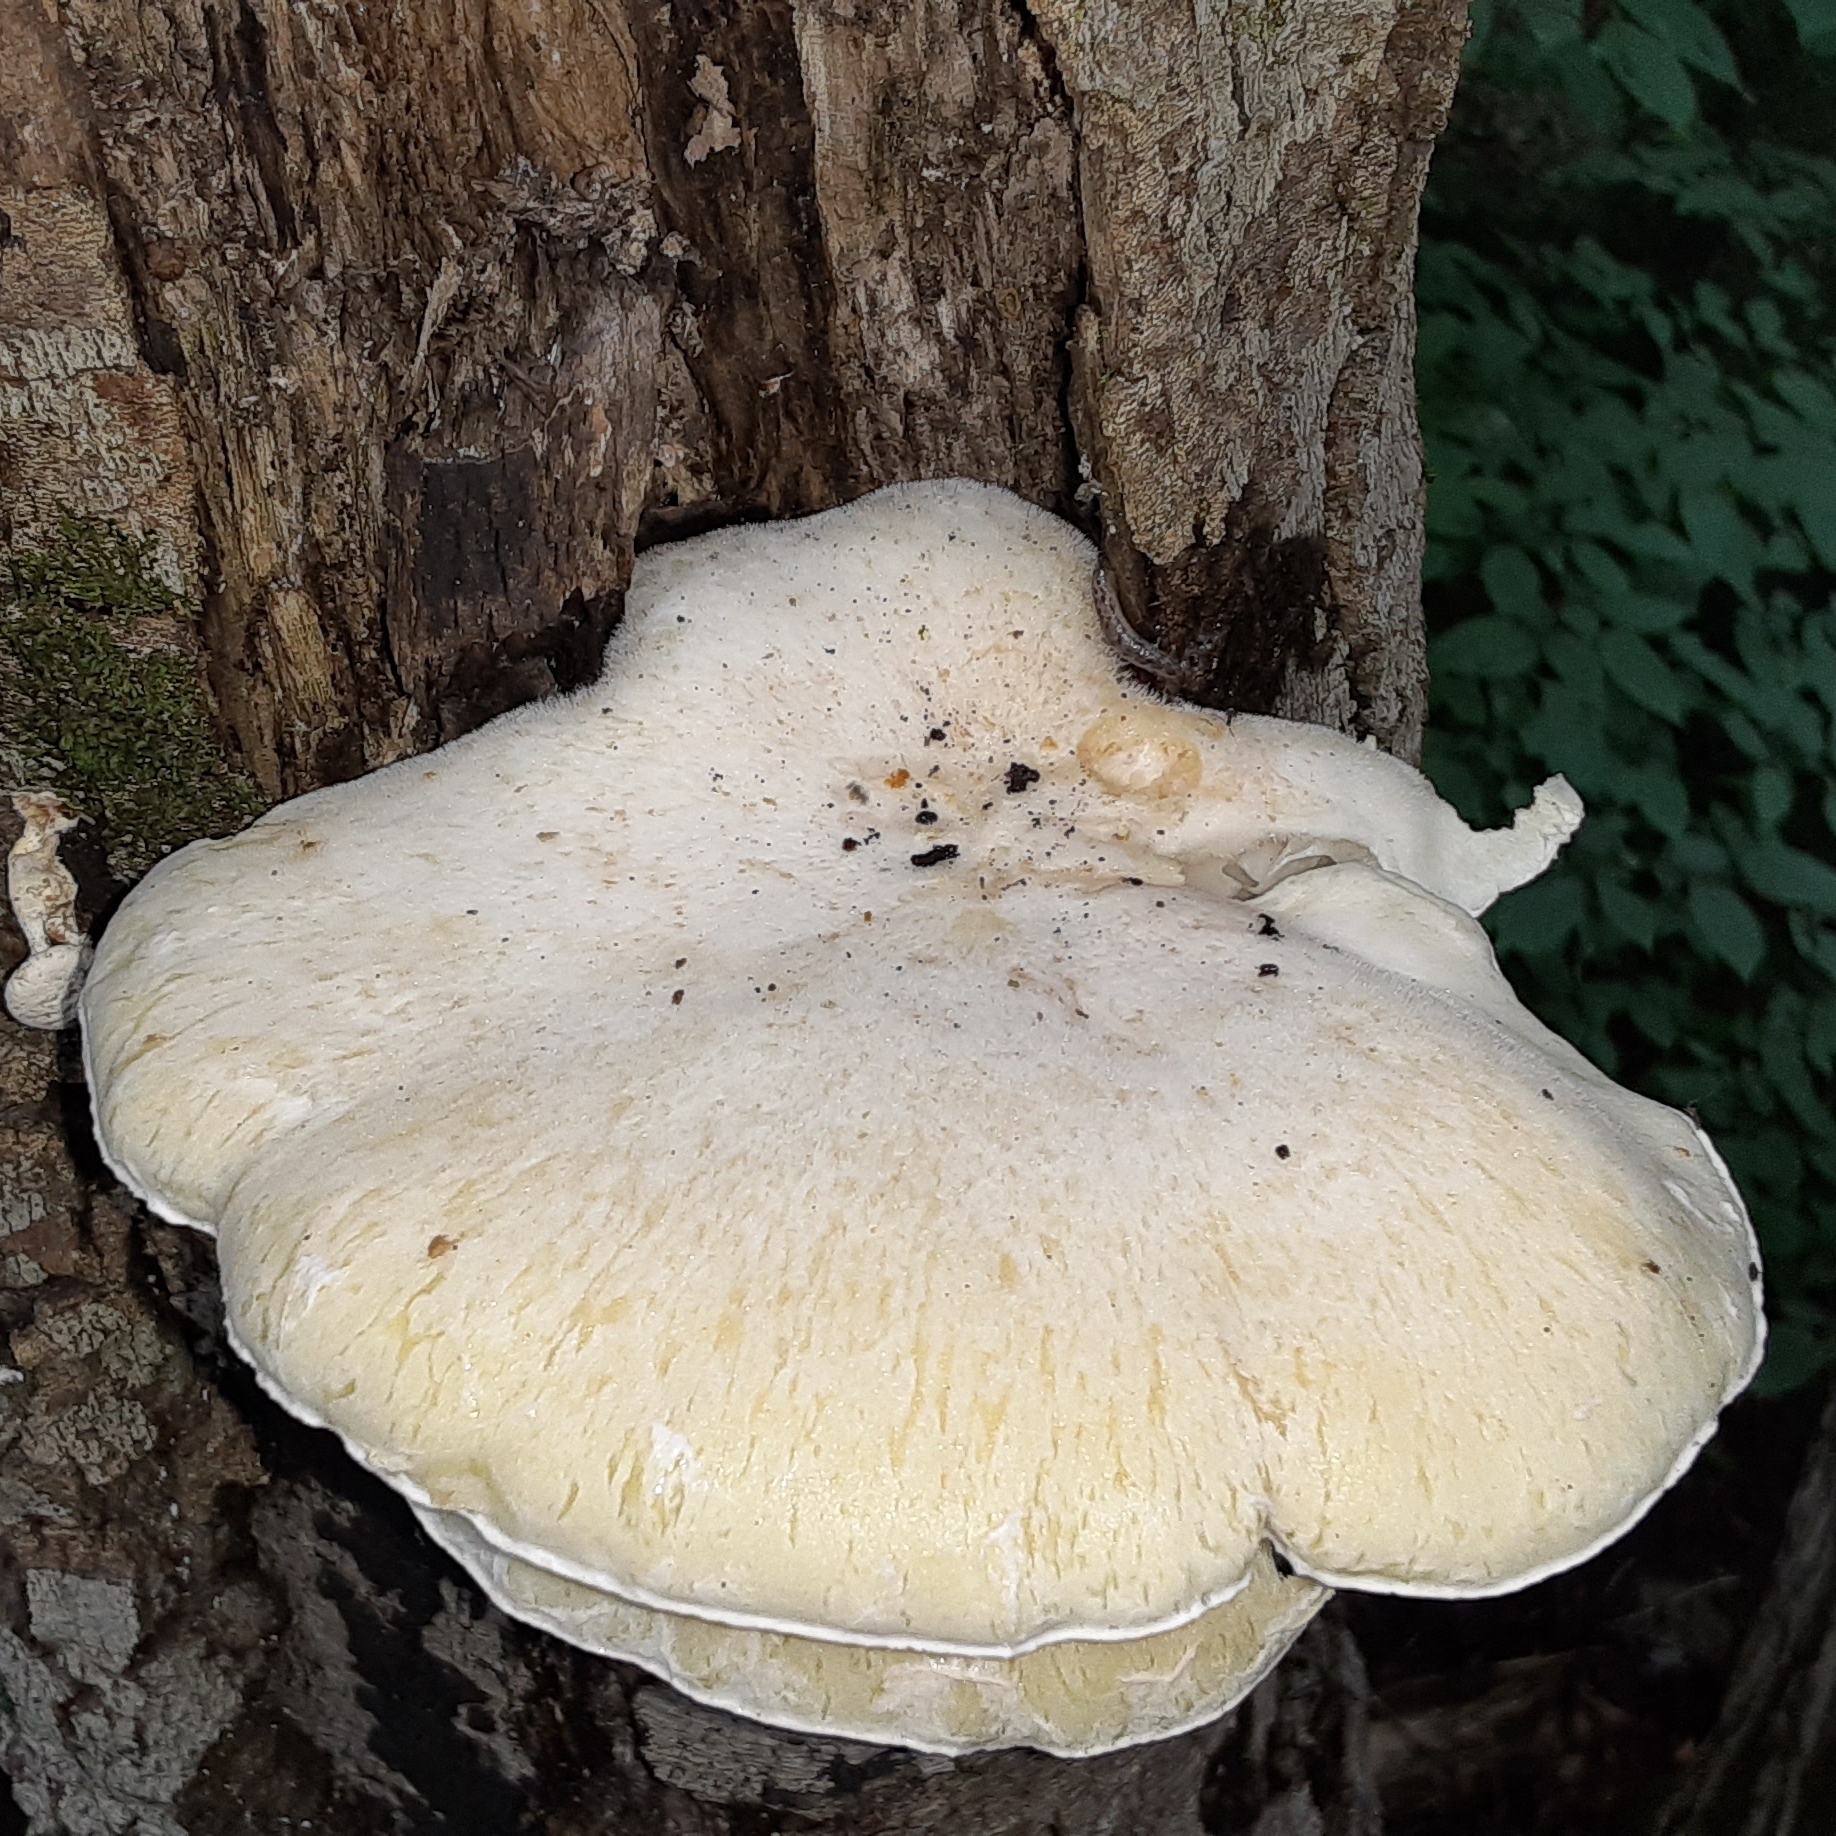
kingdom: Fungi
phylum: Basidiomycota
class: Agaricomycetes
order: Polyporales
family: Polyporaceae
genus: Lentinus
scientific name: Lentinus levis
